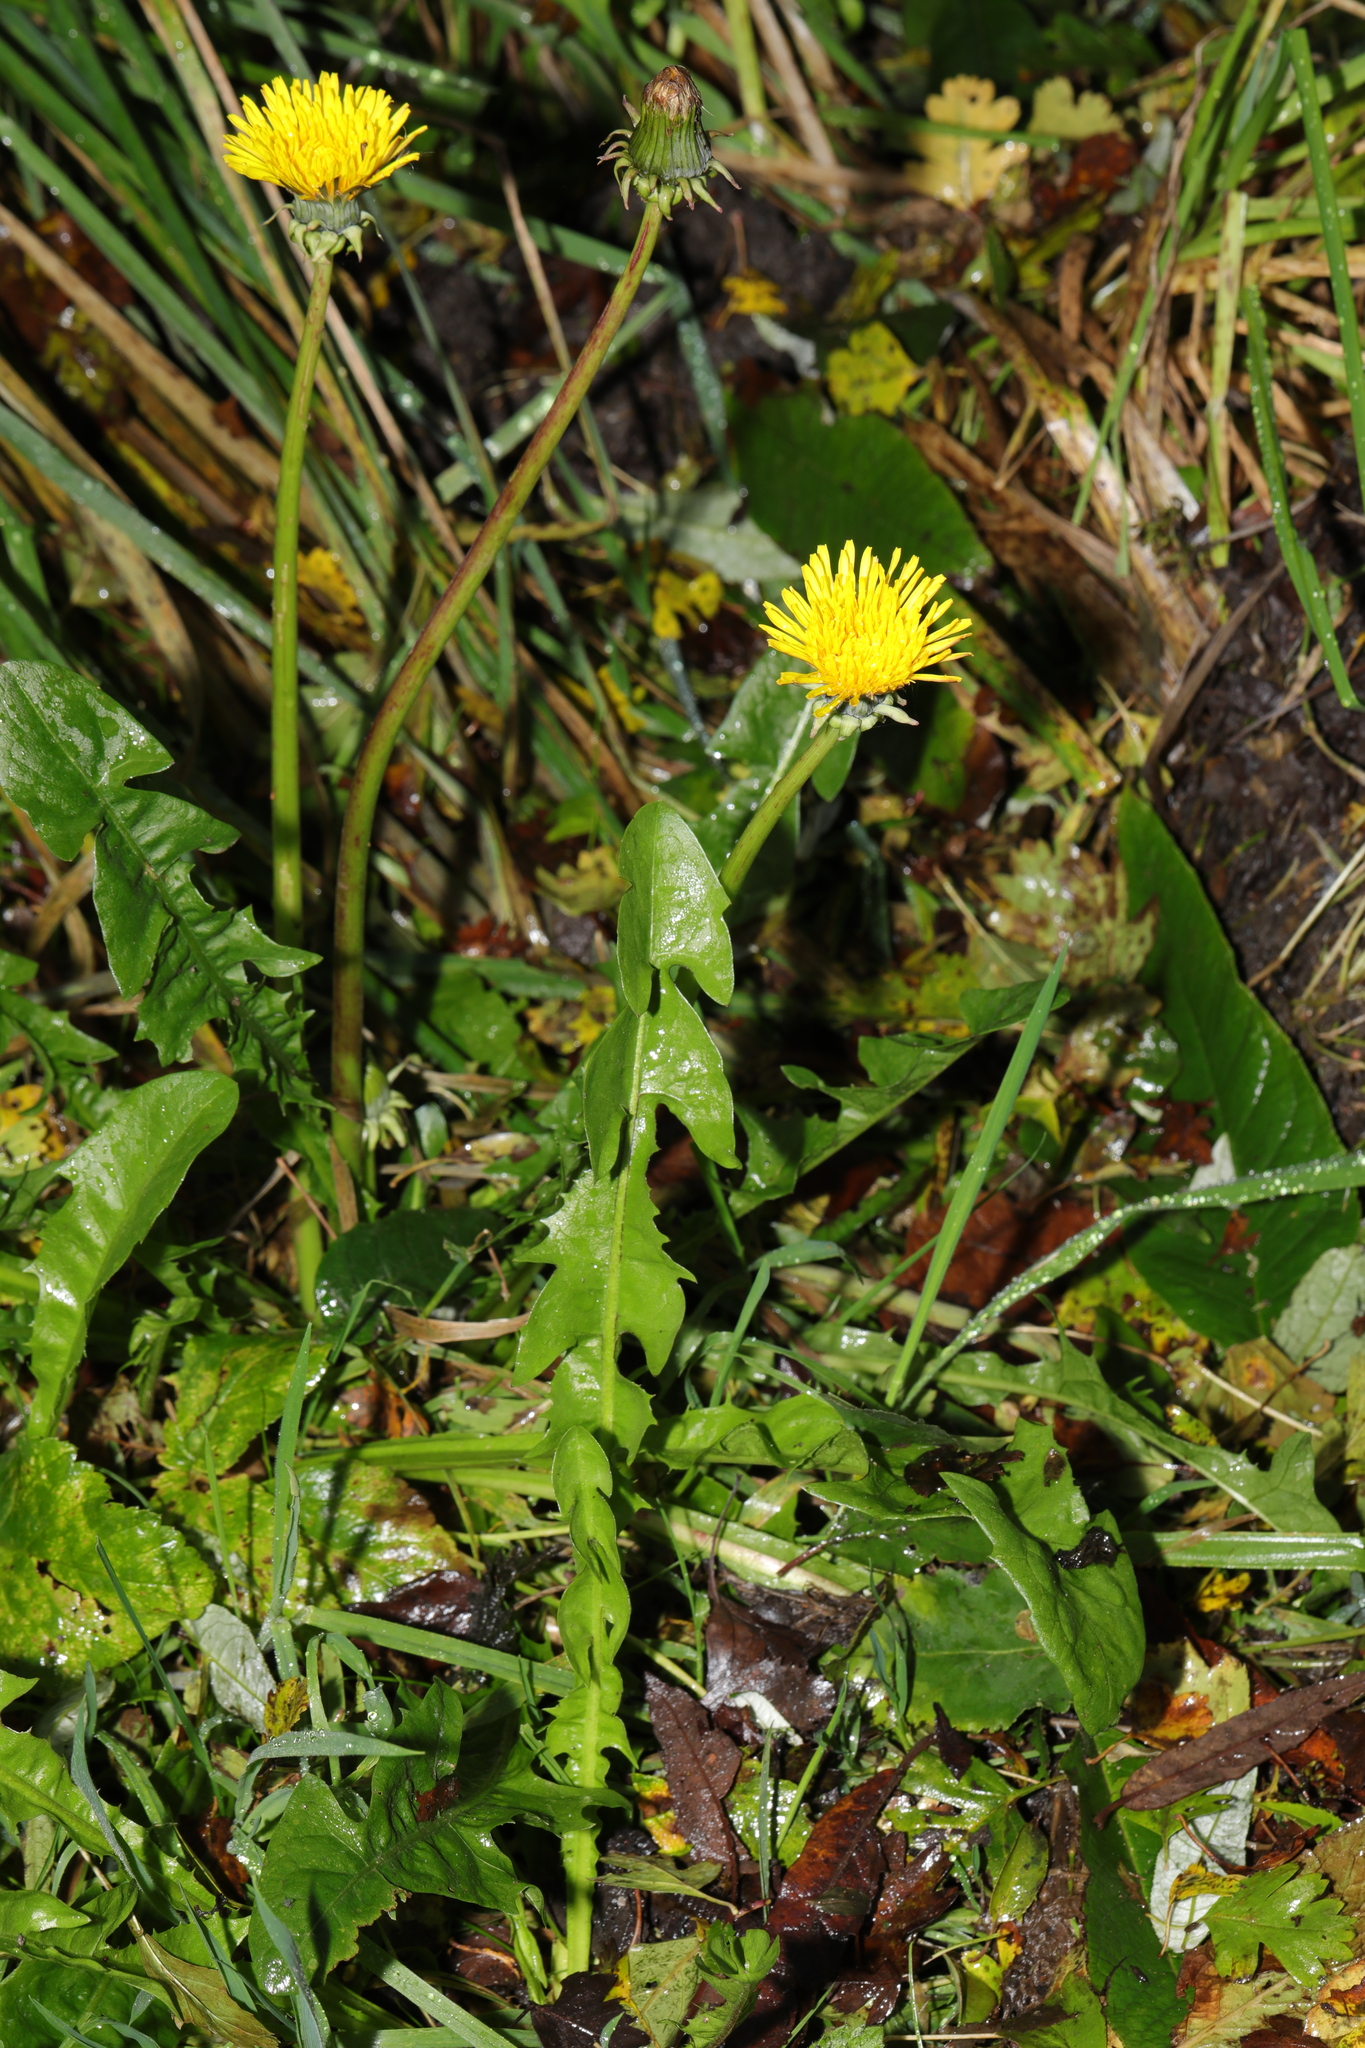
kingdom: Plantae
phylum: Tracheophyta
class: Magnoliopsida
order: Asterales
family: Asteraceae
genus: Taraxacum
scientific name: Taraxacum officinale
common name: Common dandelion
